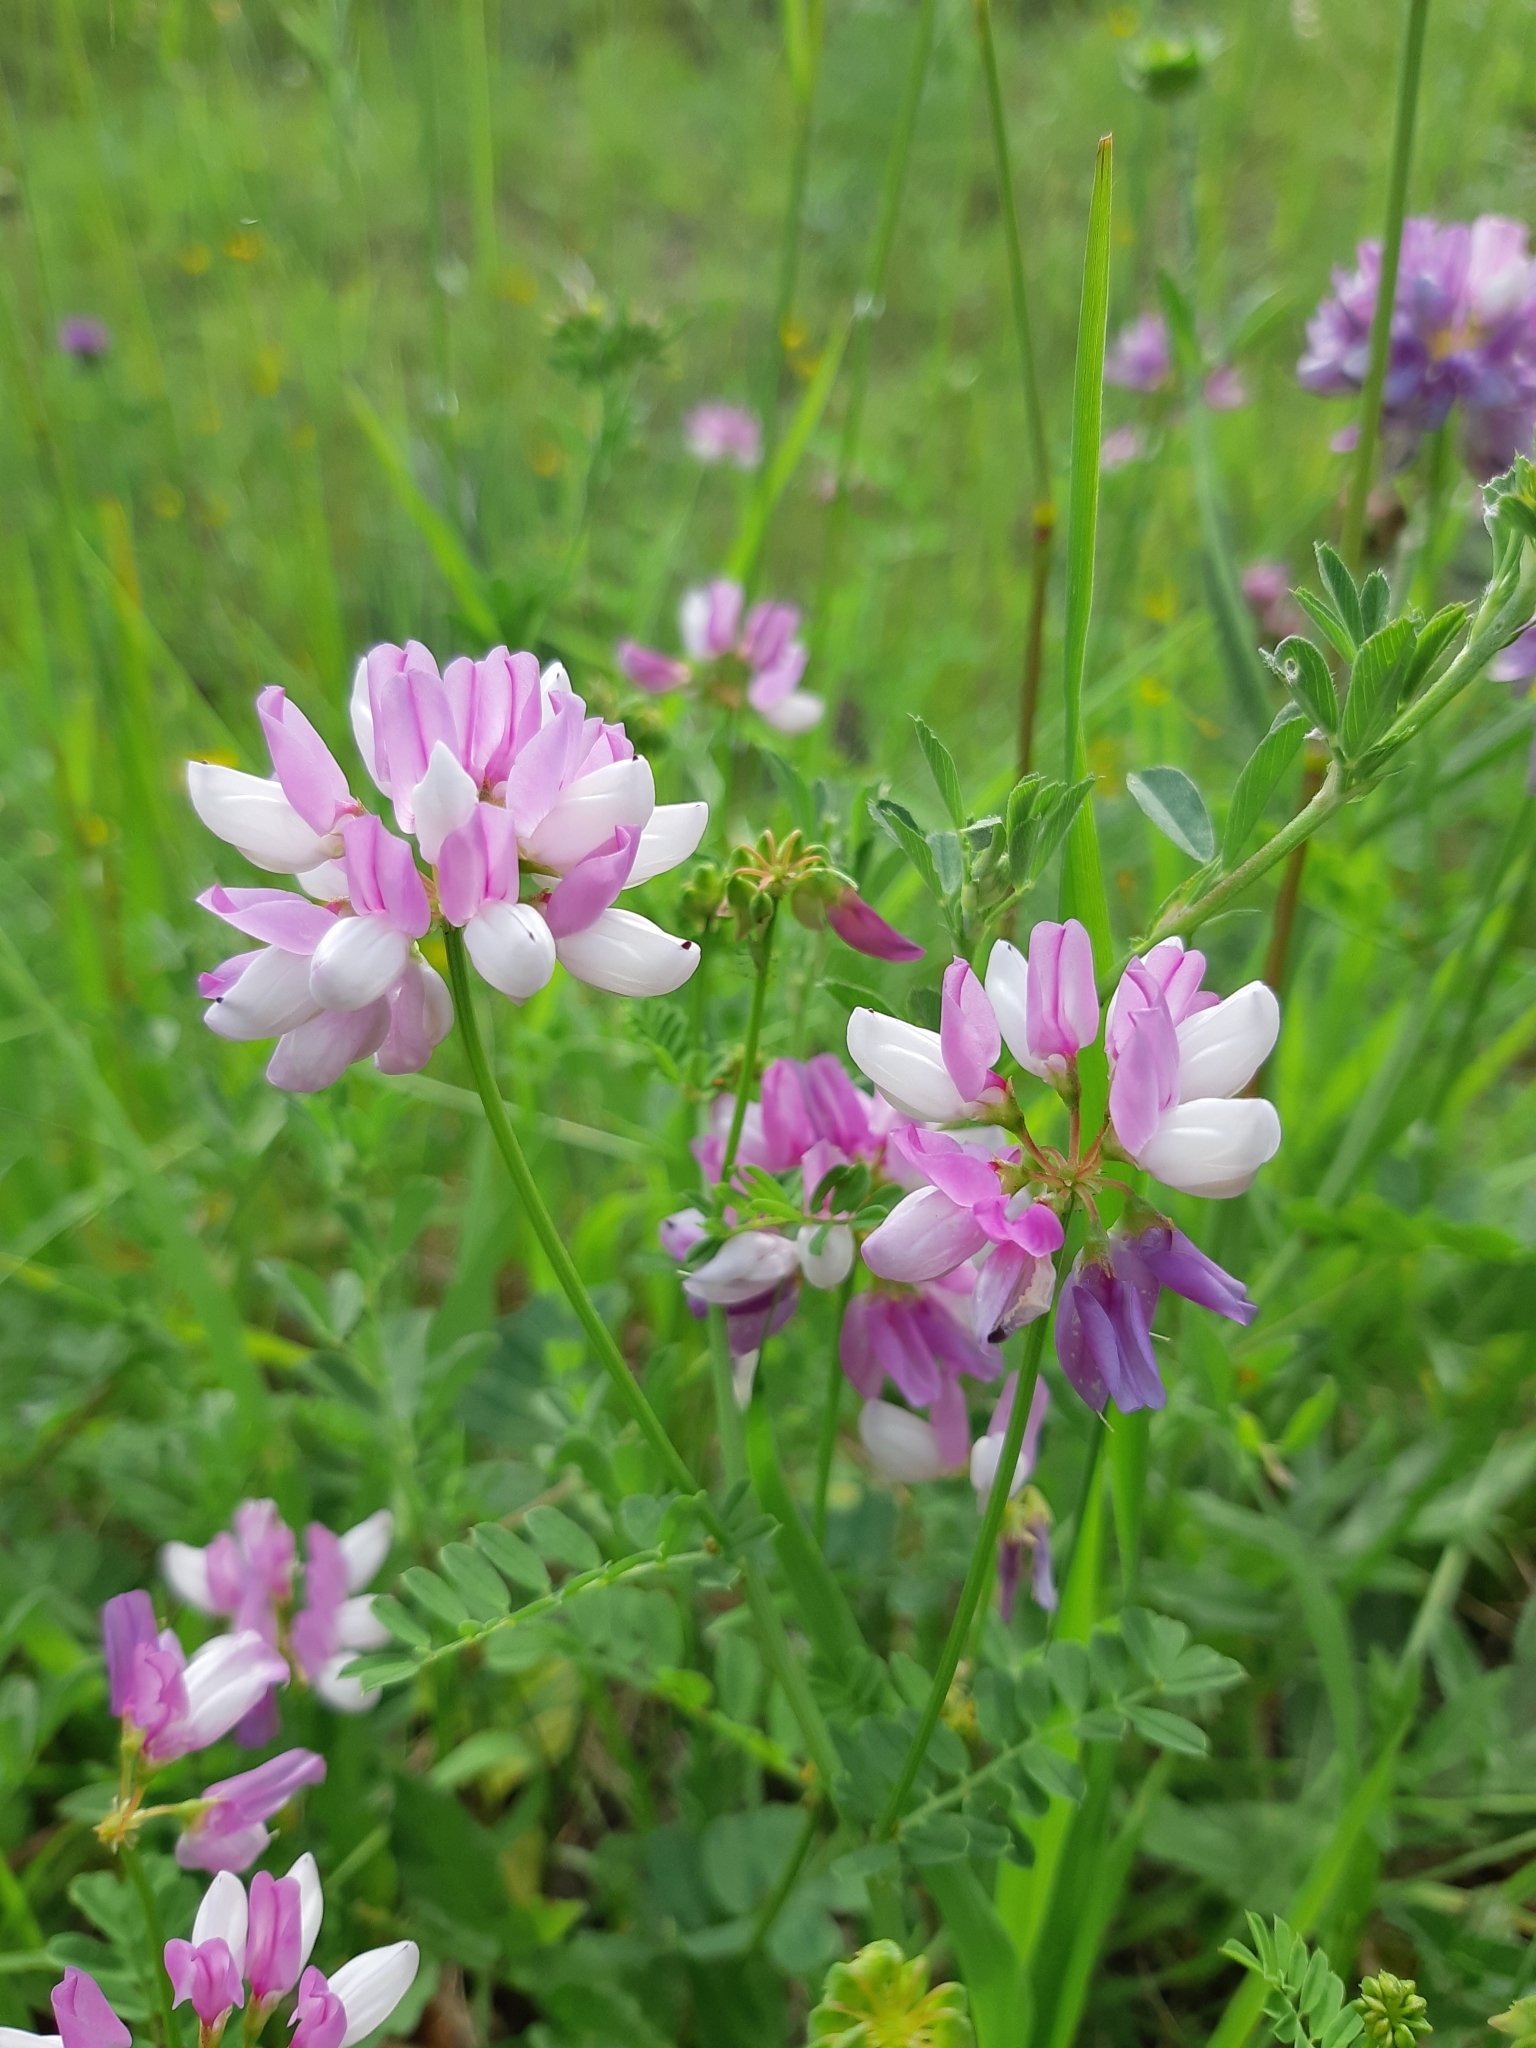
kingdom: Plantae
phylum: Tracheophyta
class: Magnoliopsida
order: Fabales
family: Fabaceae
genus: Coronilla
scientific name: Coronilla varia
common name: Crownvetch
